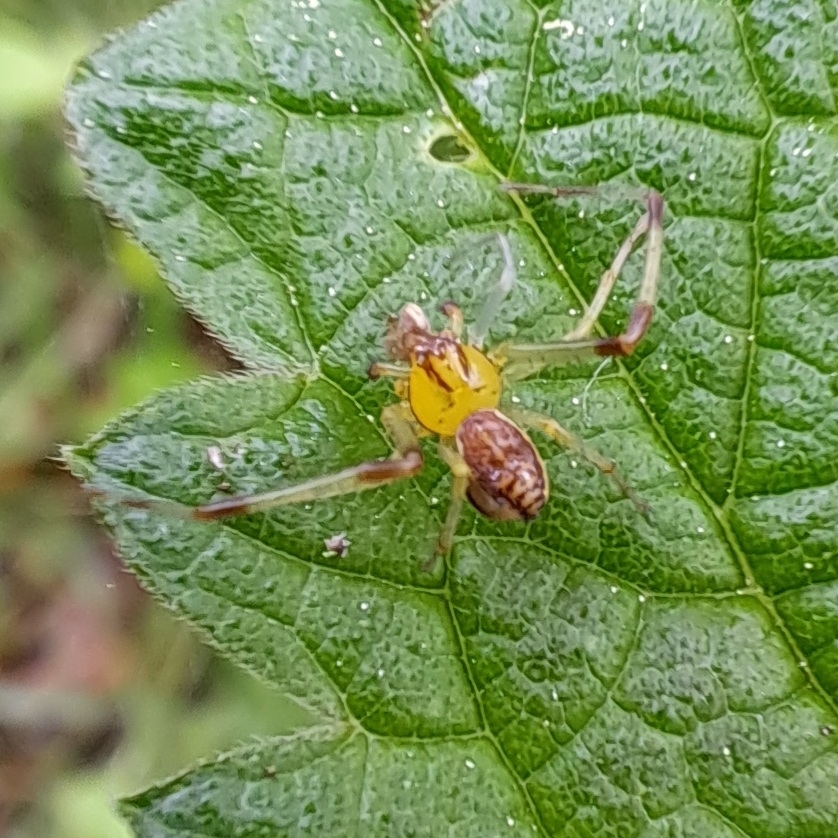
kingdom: Animalia
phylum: Arthropoda
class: Arachnida
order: Araneae
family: Thomisidae
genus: Diaea
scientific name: Diaea dorsata
